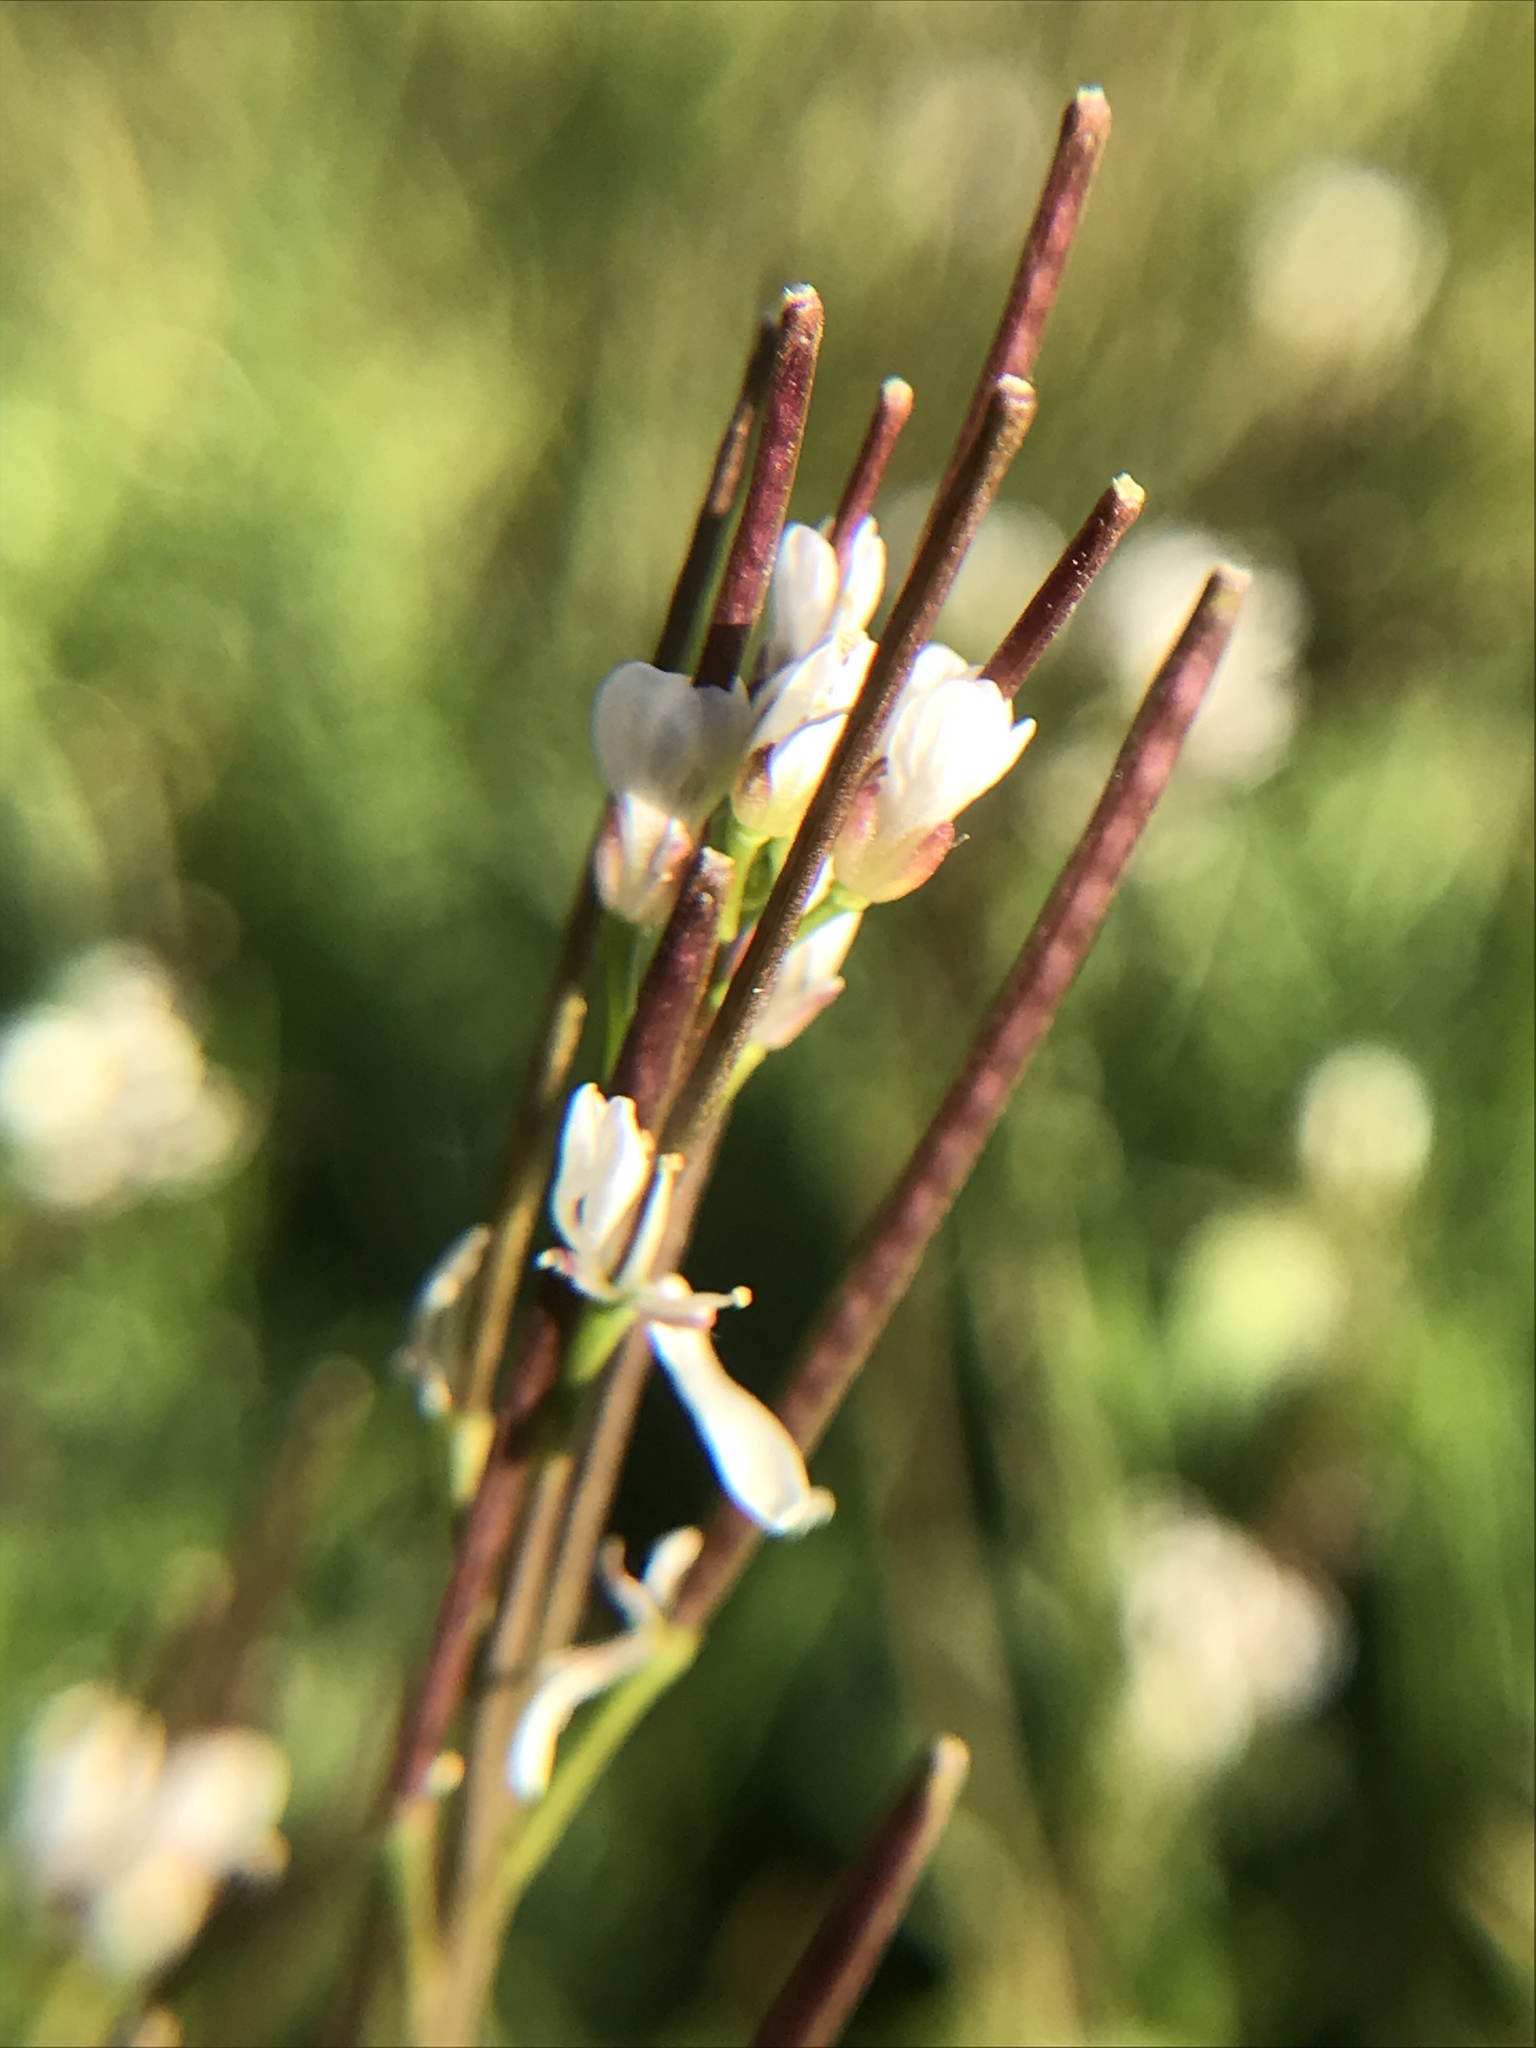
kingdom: Plantae
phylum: Tracheophyta
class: Magnoliopsida
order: Brassicales
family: Brassicaceae
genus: Cardamine
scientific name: Cardamine hirsuta
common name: Hairy bittercress
